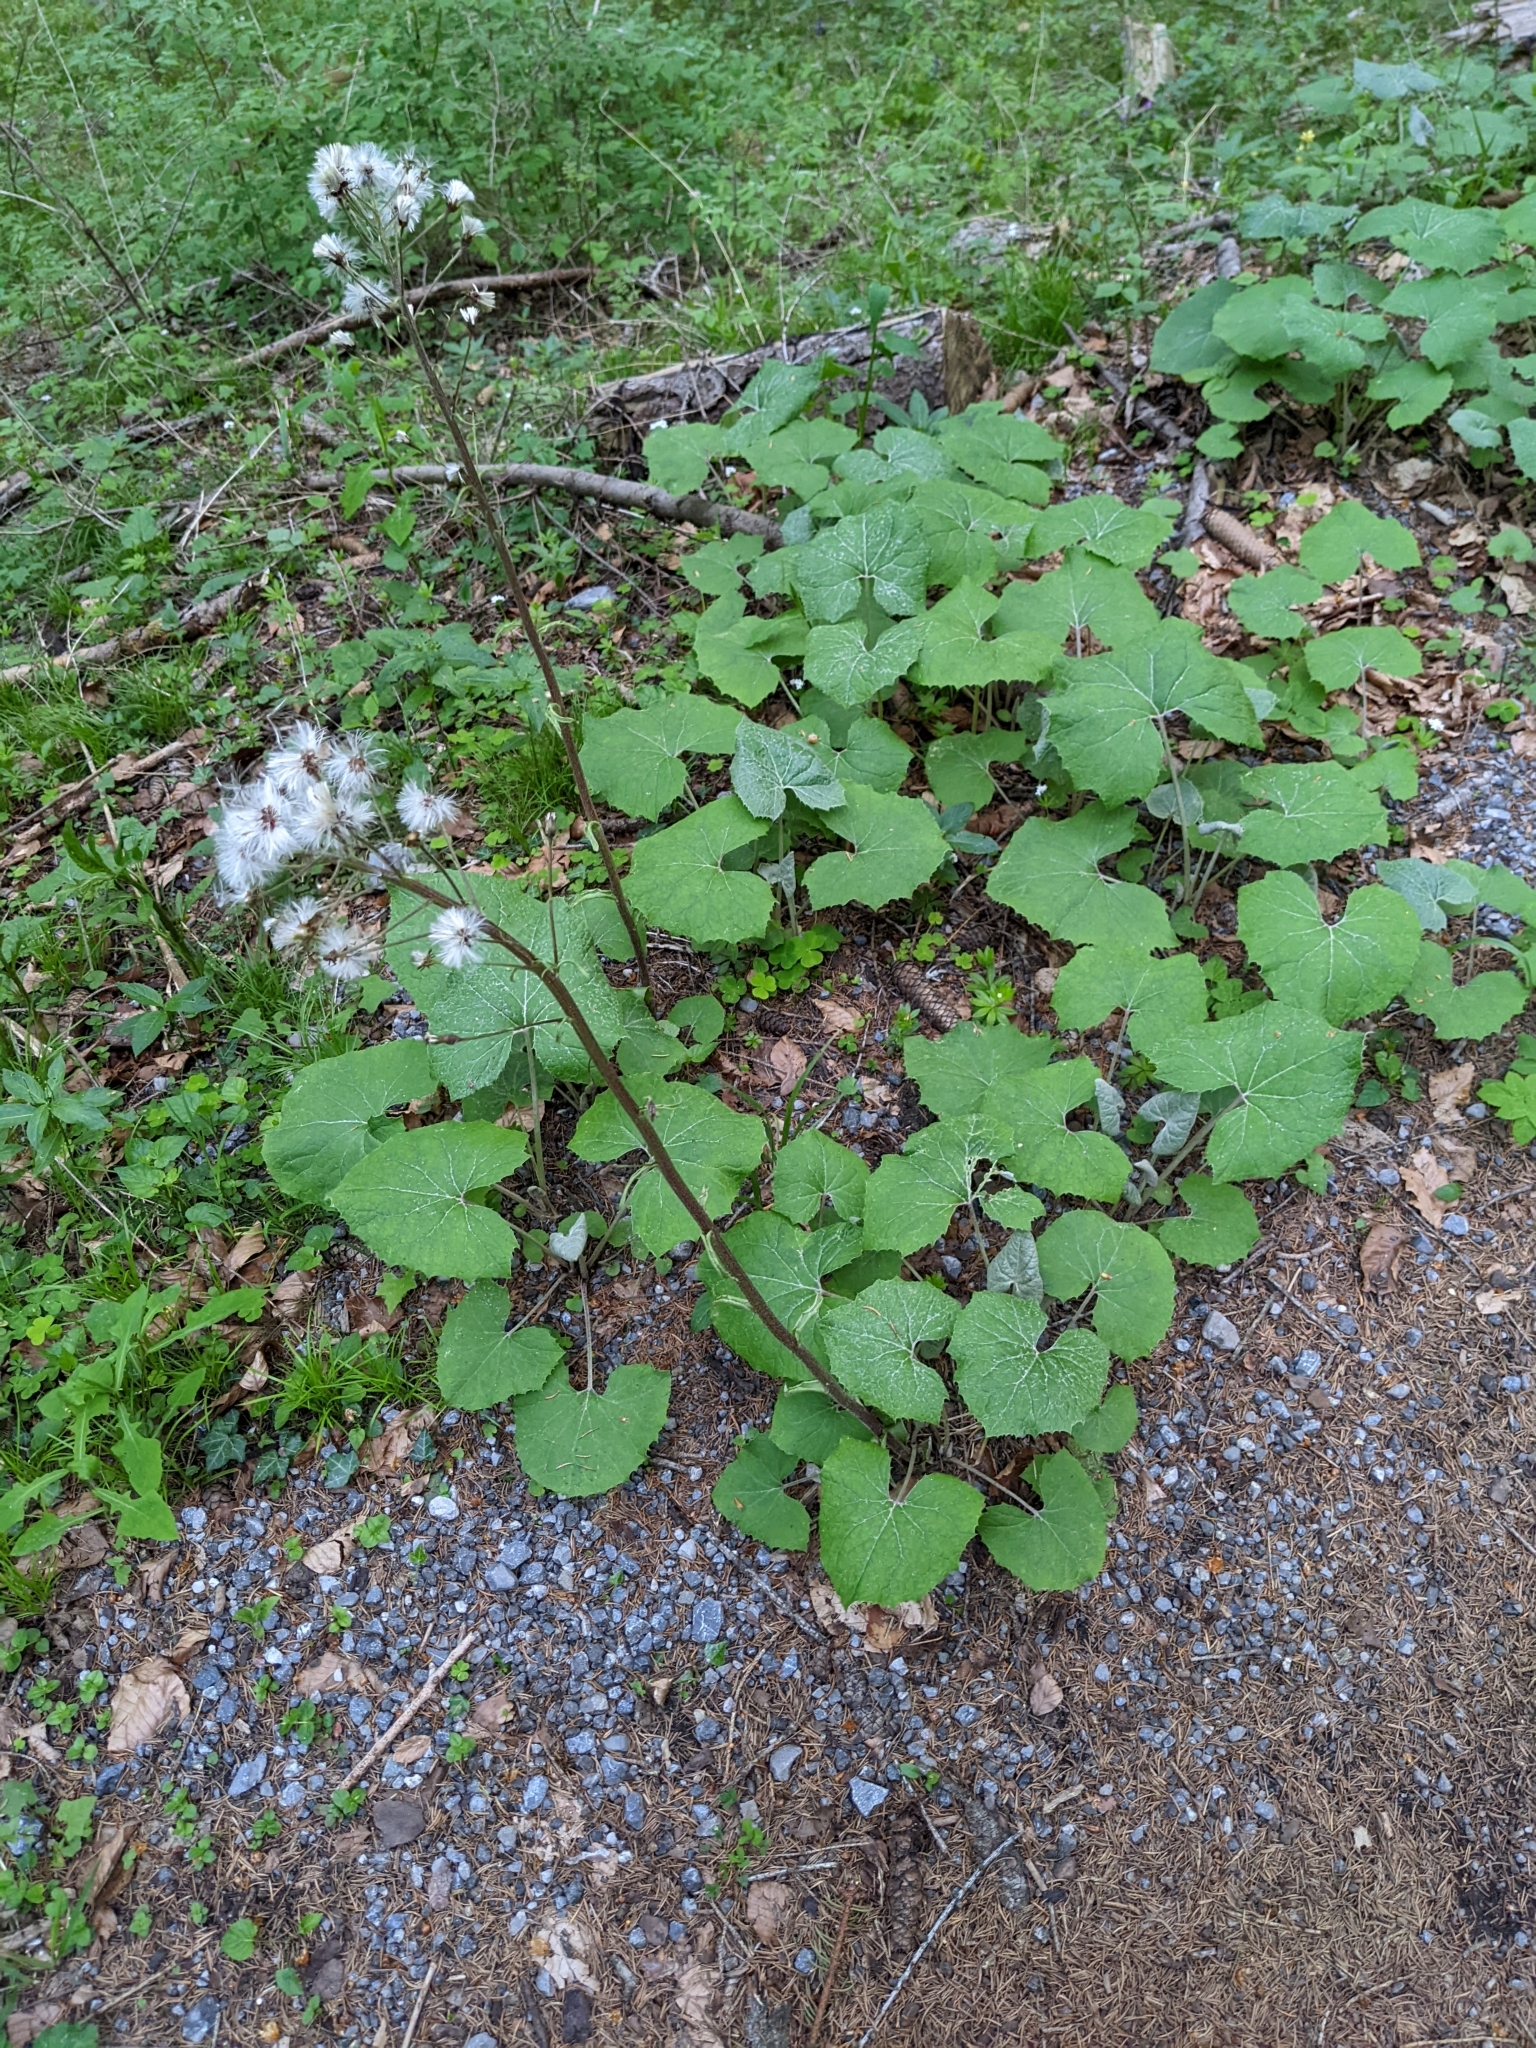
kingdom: Plantae
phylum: Tracheophyta
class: Magnoliopsida
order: Asterales
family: Asteraceae
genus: Petasites
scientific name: Petasites albus
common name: White butterbur
